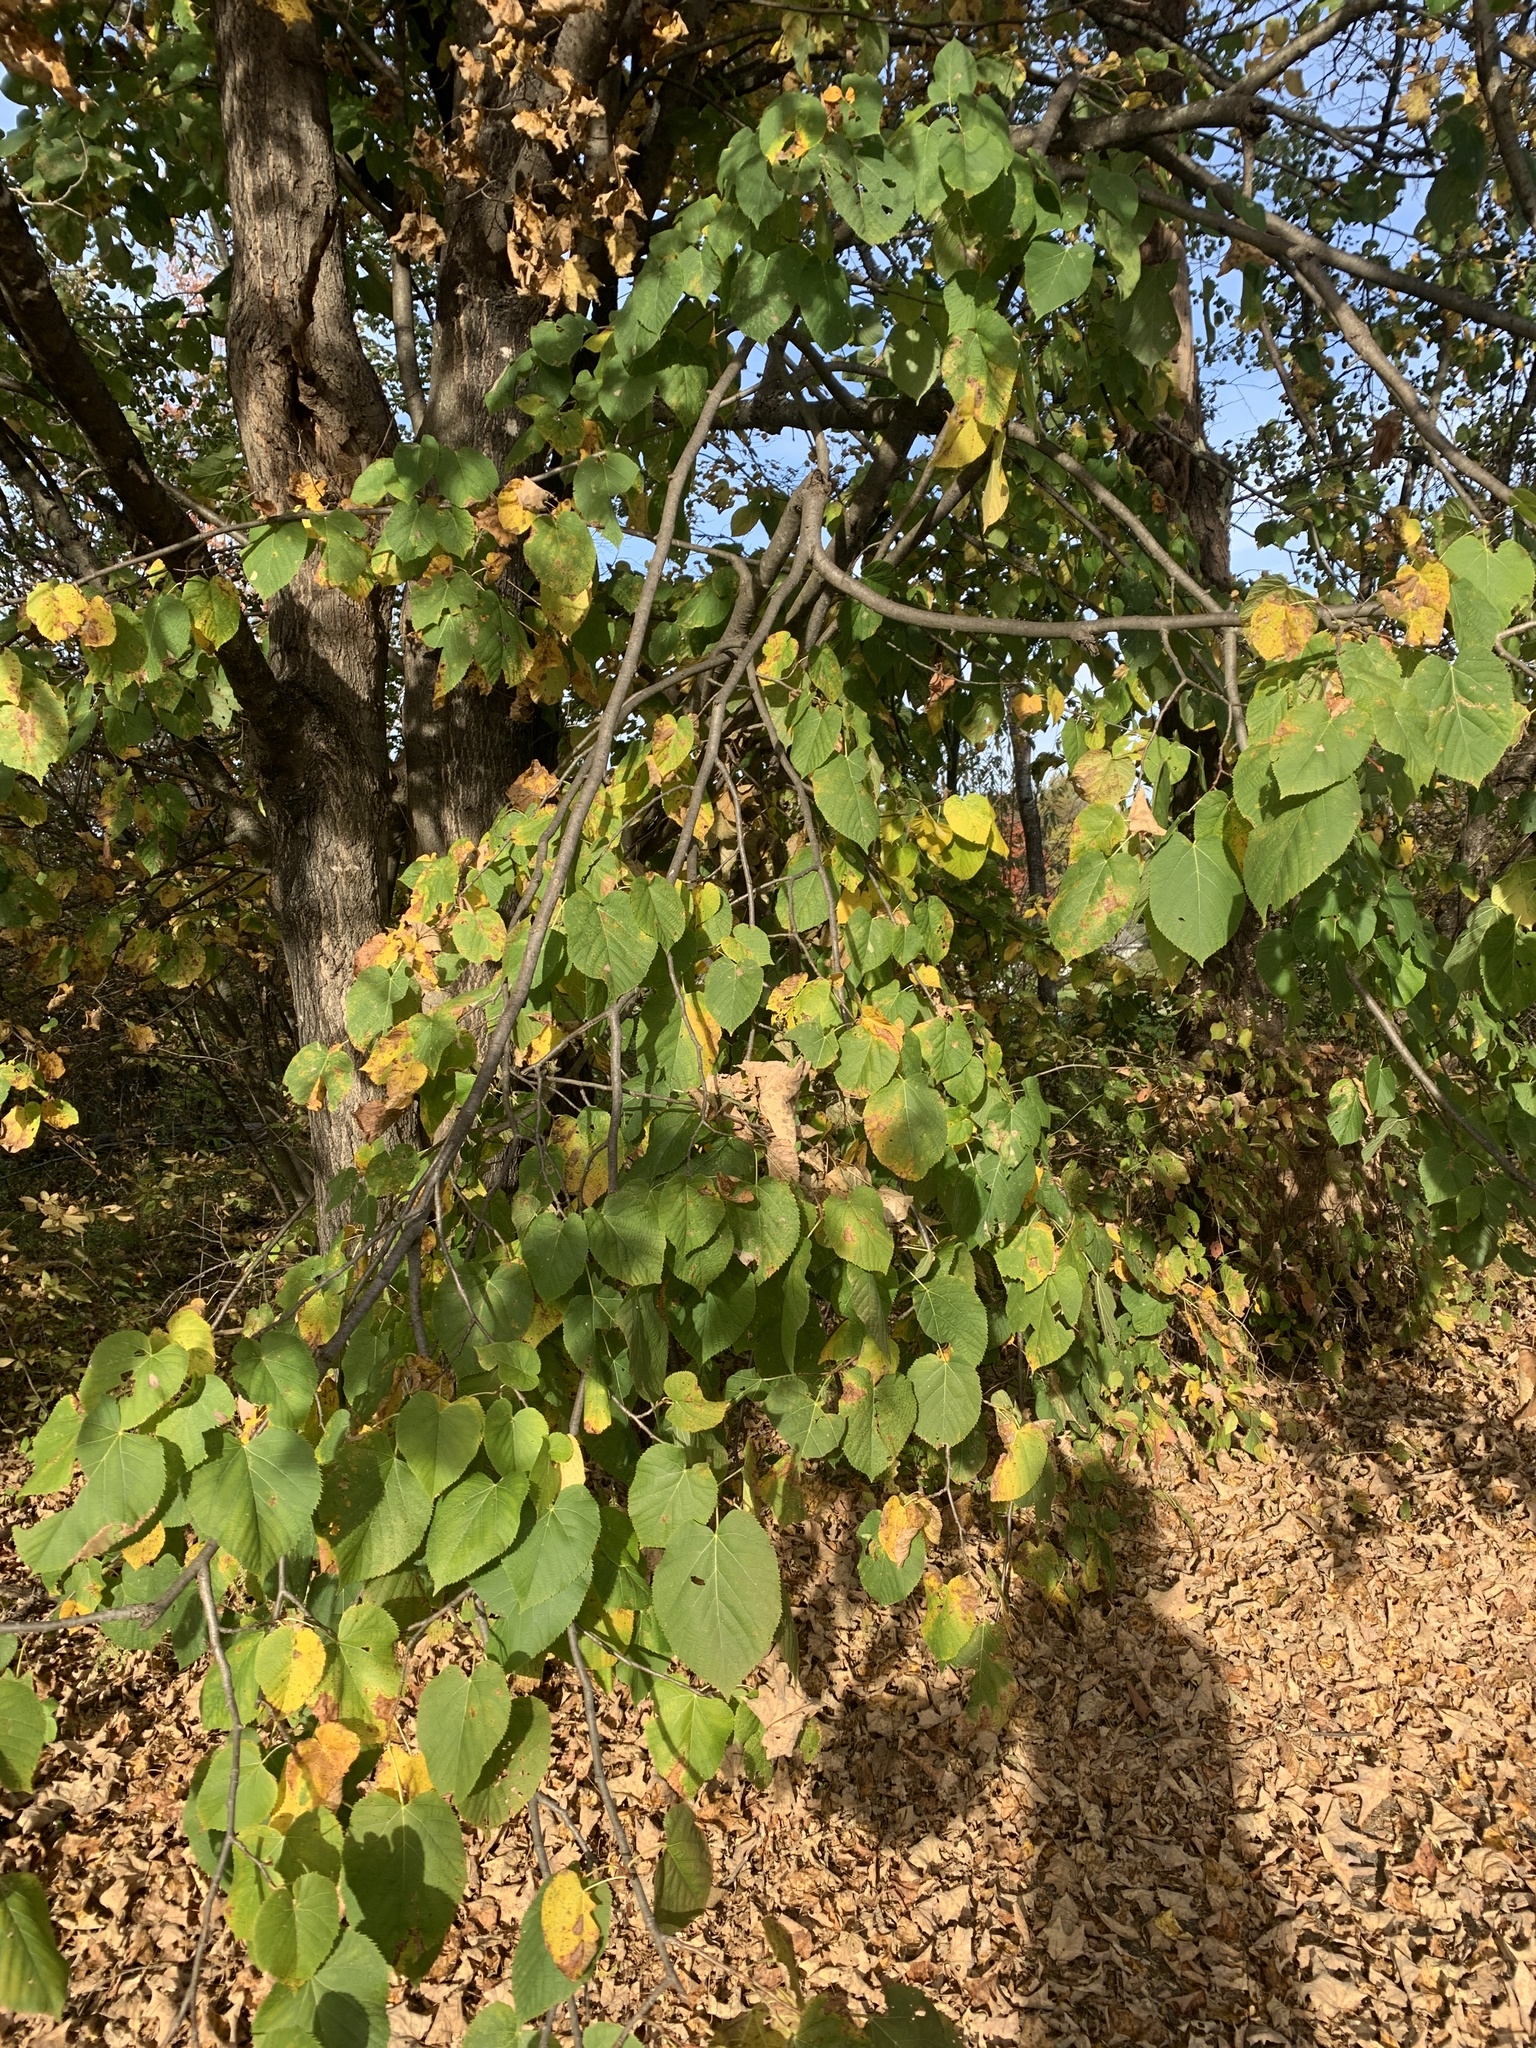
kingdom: Plantae
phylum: Tracheophyta
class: Magnoliopsida
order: Malvales
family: Malvaceae
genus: Tilia
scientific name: Tilia americana
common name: Basswood
